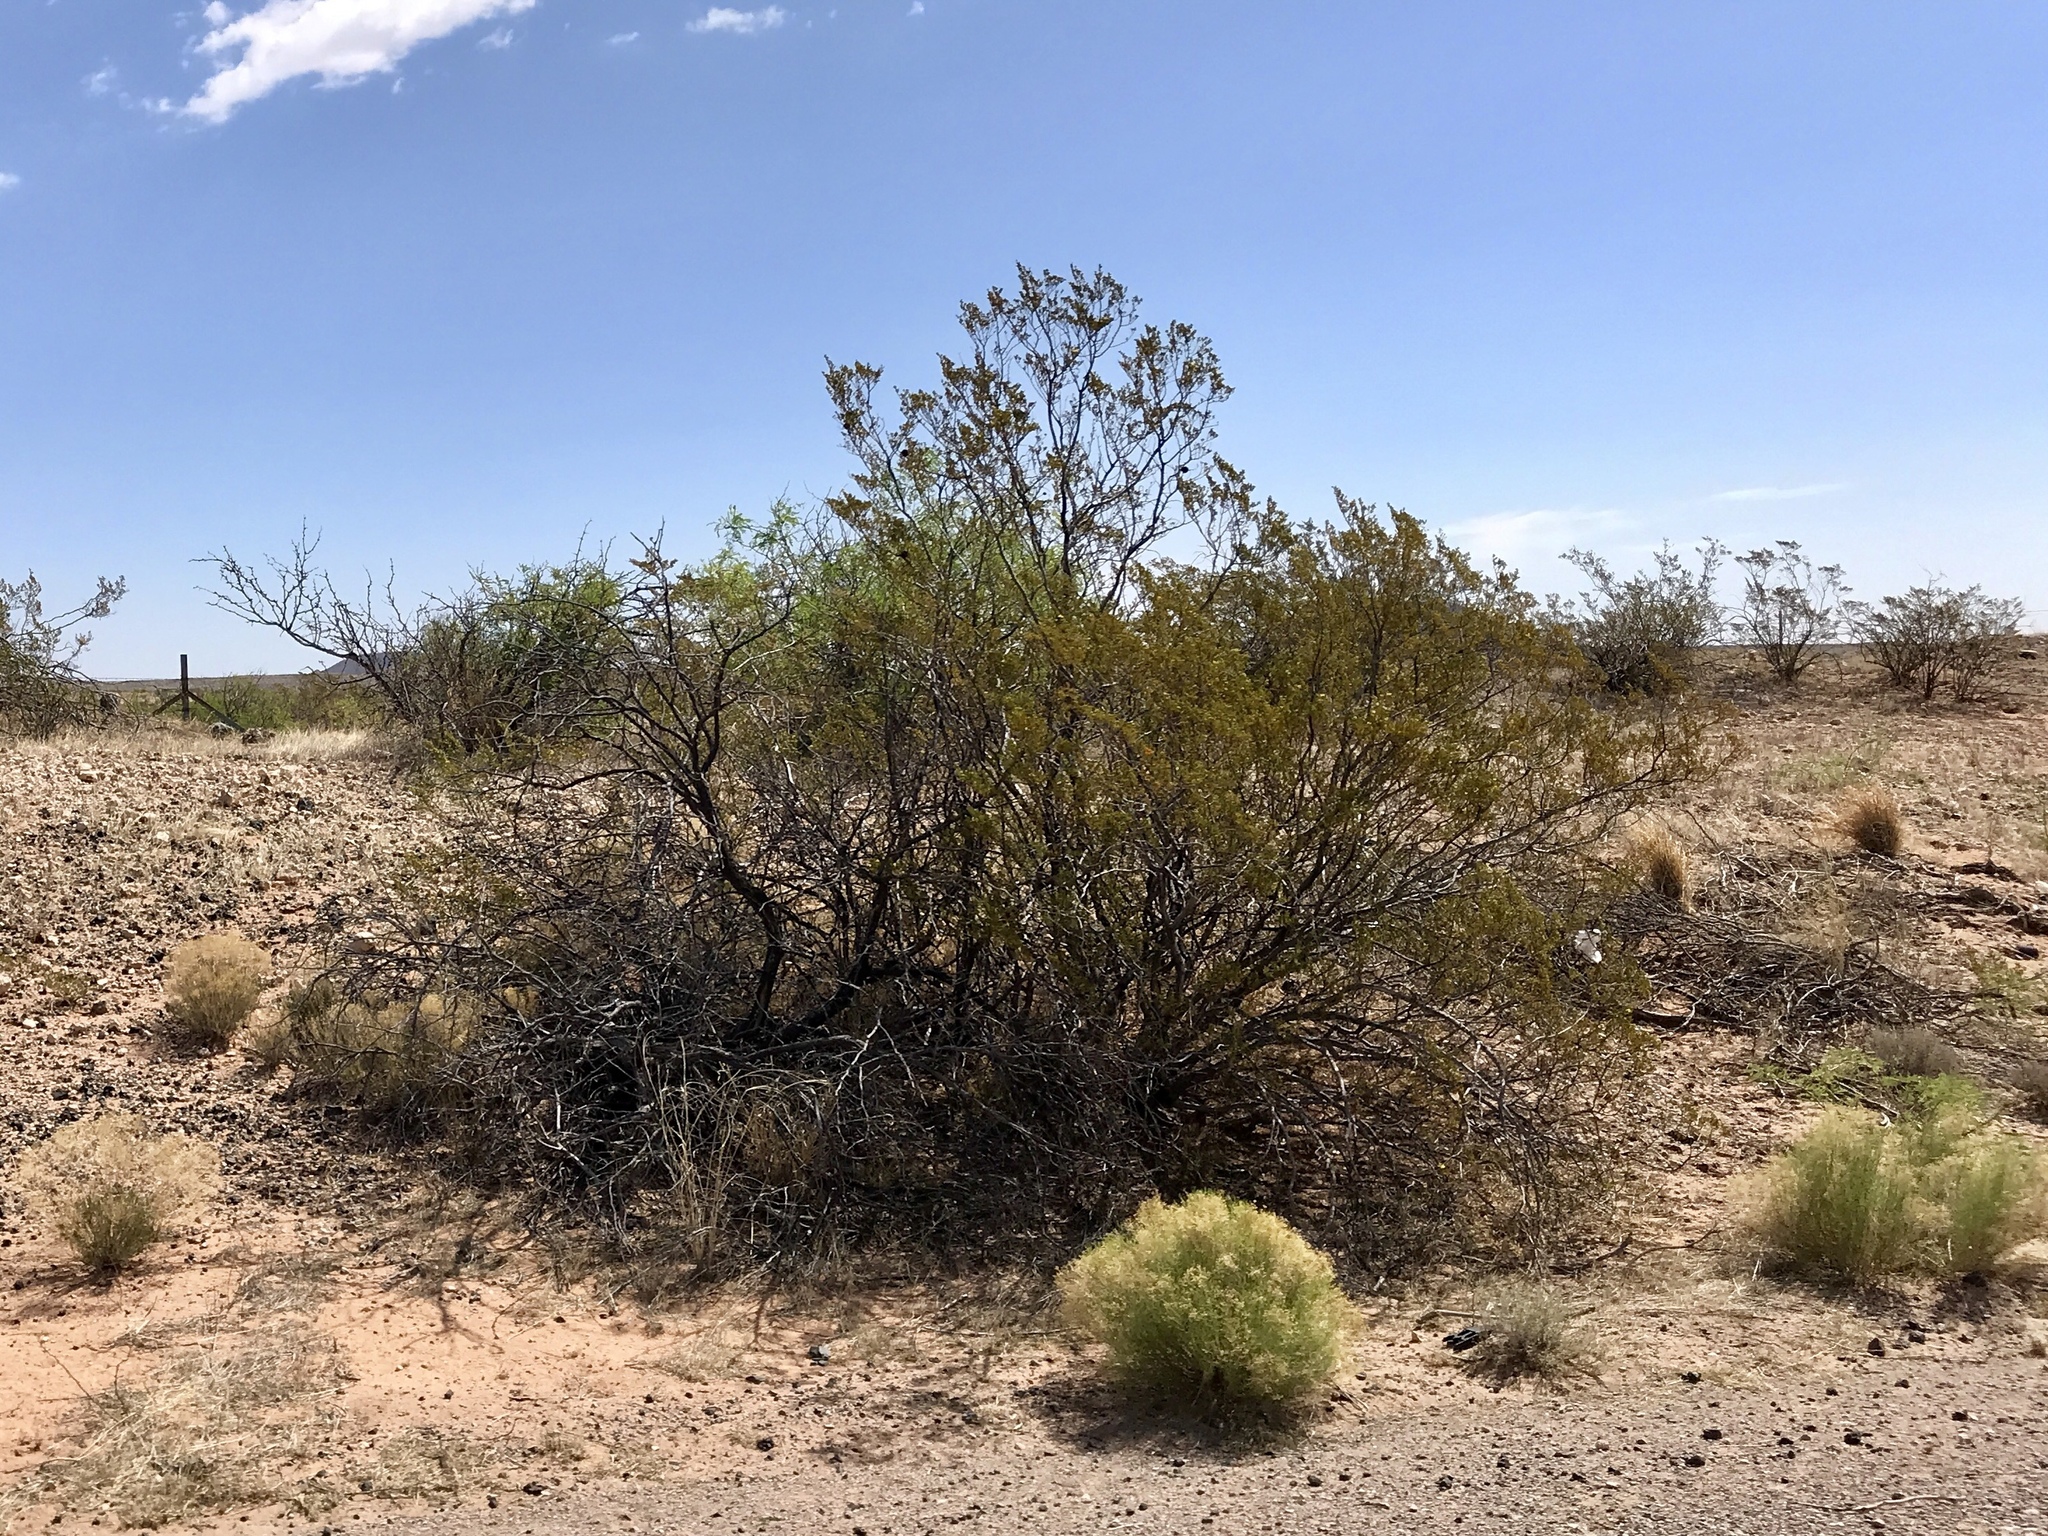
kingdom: Plantae
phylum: Tracheophyta
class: Magnoliopsida
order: Zygophyllales
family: Zygophyllaceae
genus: Larrea
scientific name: Larrea tridentata
